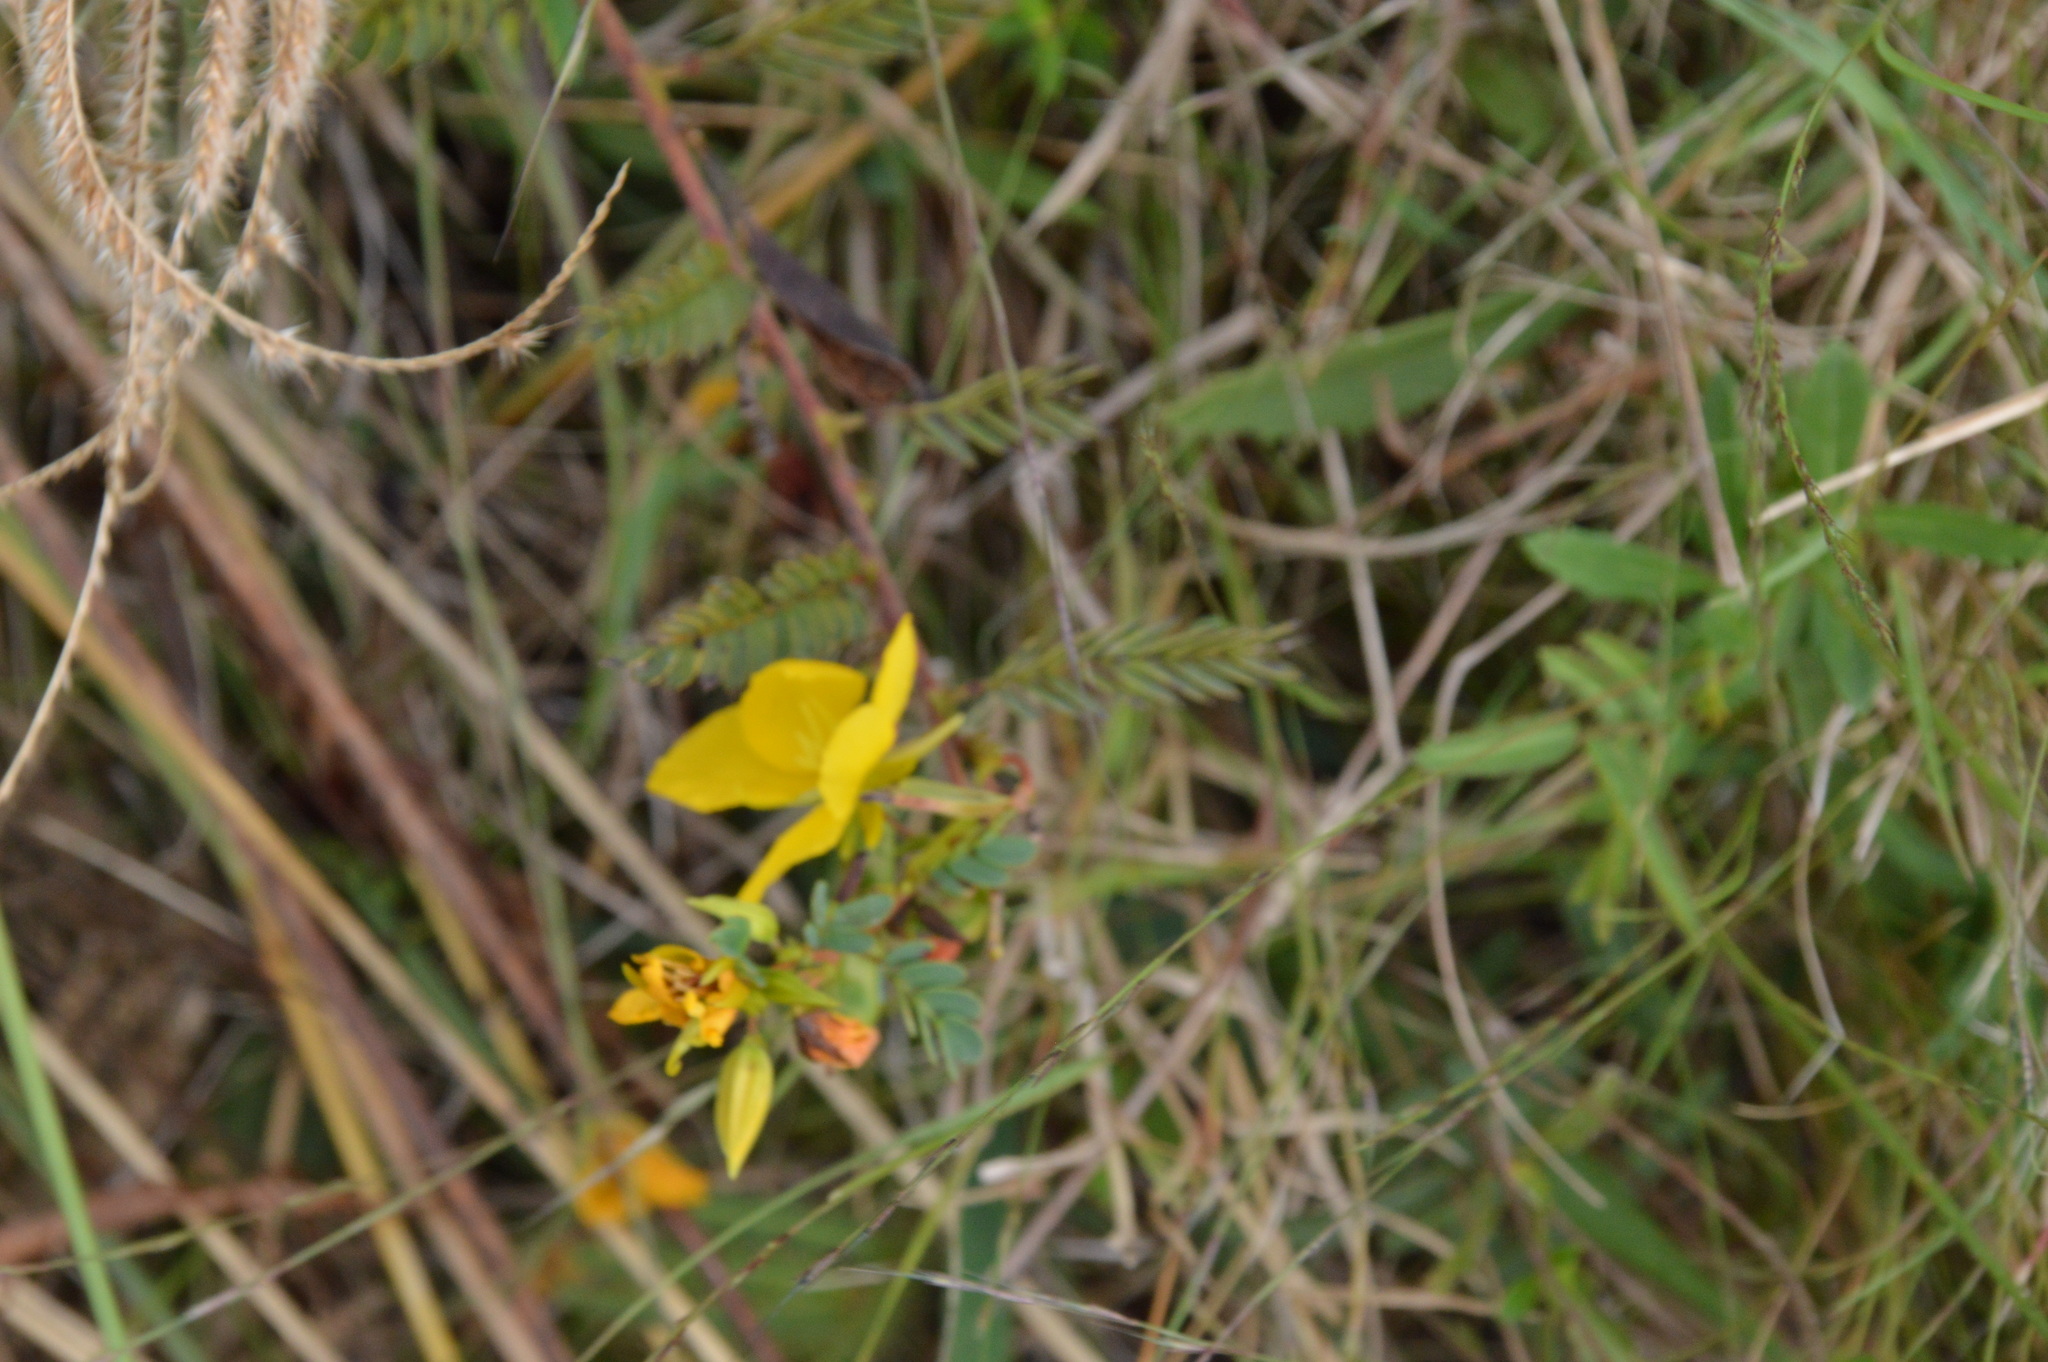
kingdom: Plantae
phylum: Tracheophyta
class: Magnoliopsida
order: Fabales
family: Fabaceae
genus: Chamaecrista
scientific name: Chamaecrista fasciculata
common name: Golden cassia
